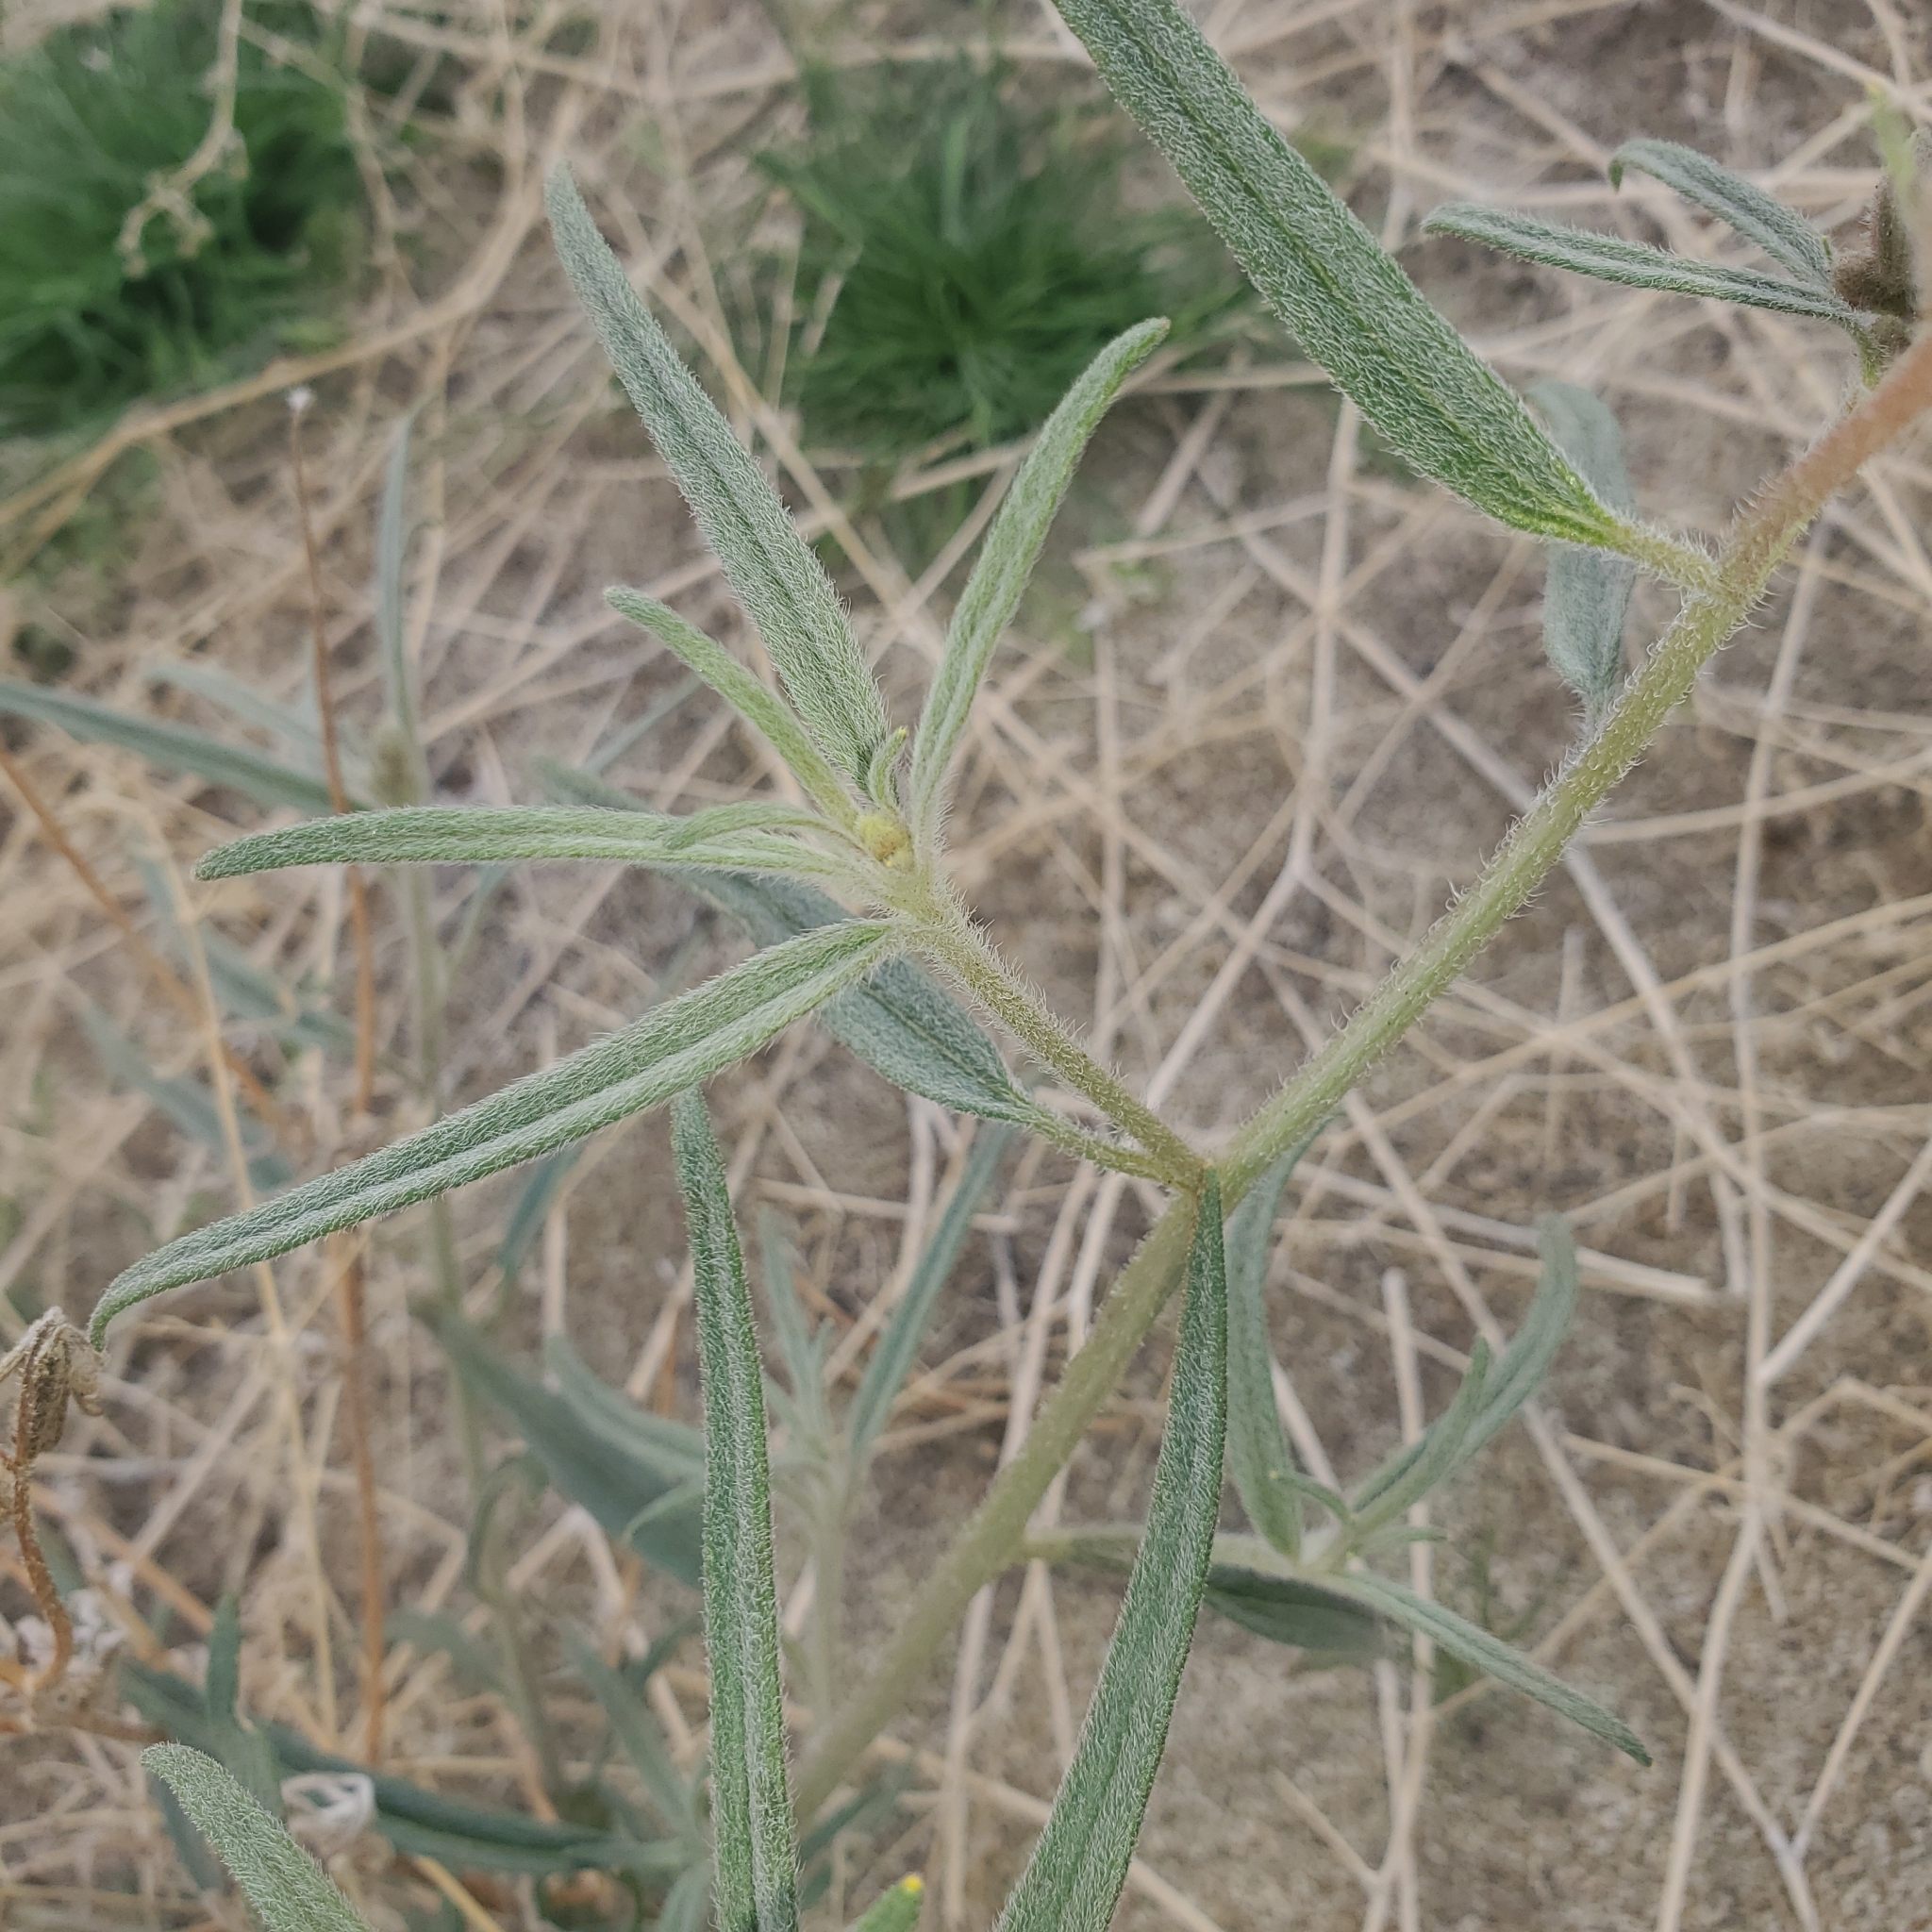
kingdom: Plantae
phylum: Tracheophyta
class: Magnoliopsida
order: Asterales
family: Asteraceae
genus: Palafoxia
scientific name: Palafoxia arida
